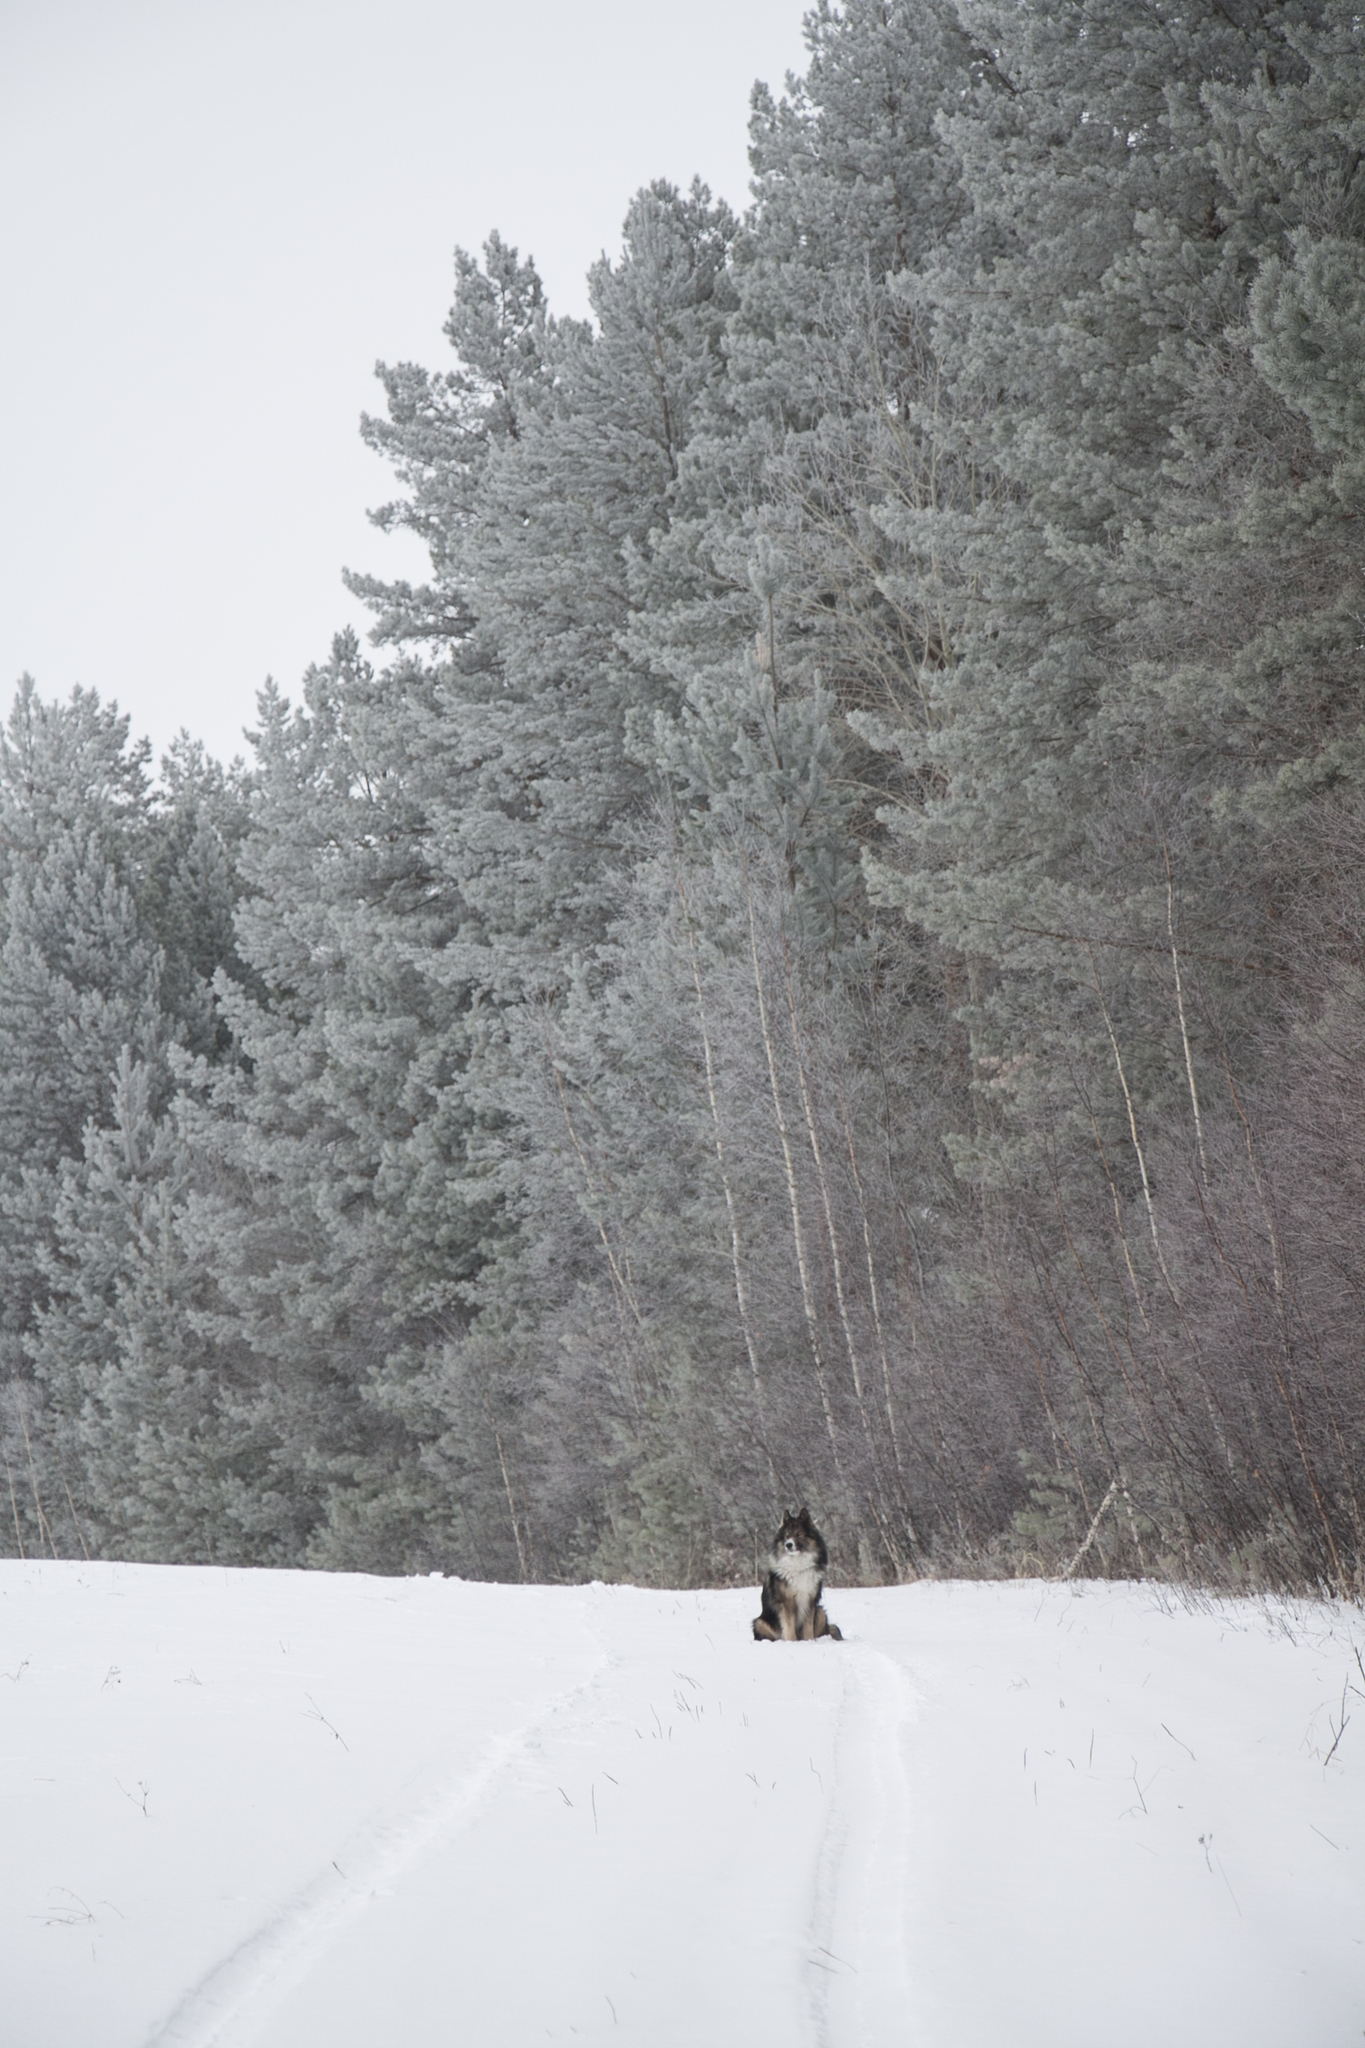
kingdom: Plantae
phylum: Tracheophyta
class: Pinopsida
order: Pinales
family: Pinaceae
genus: Pinus
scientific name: Pinus sylvestris
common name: Scots pine
